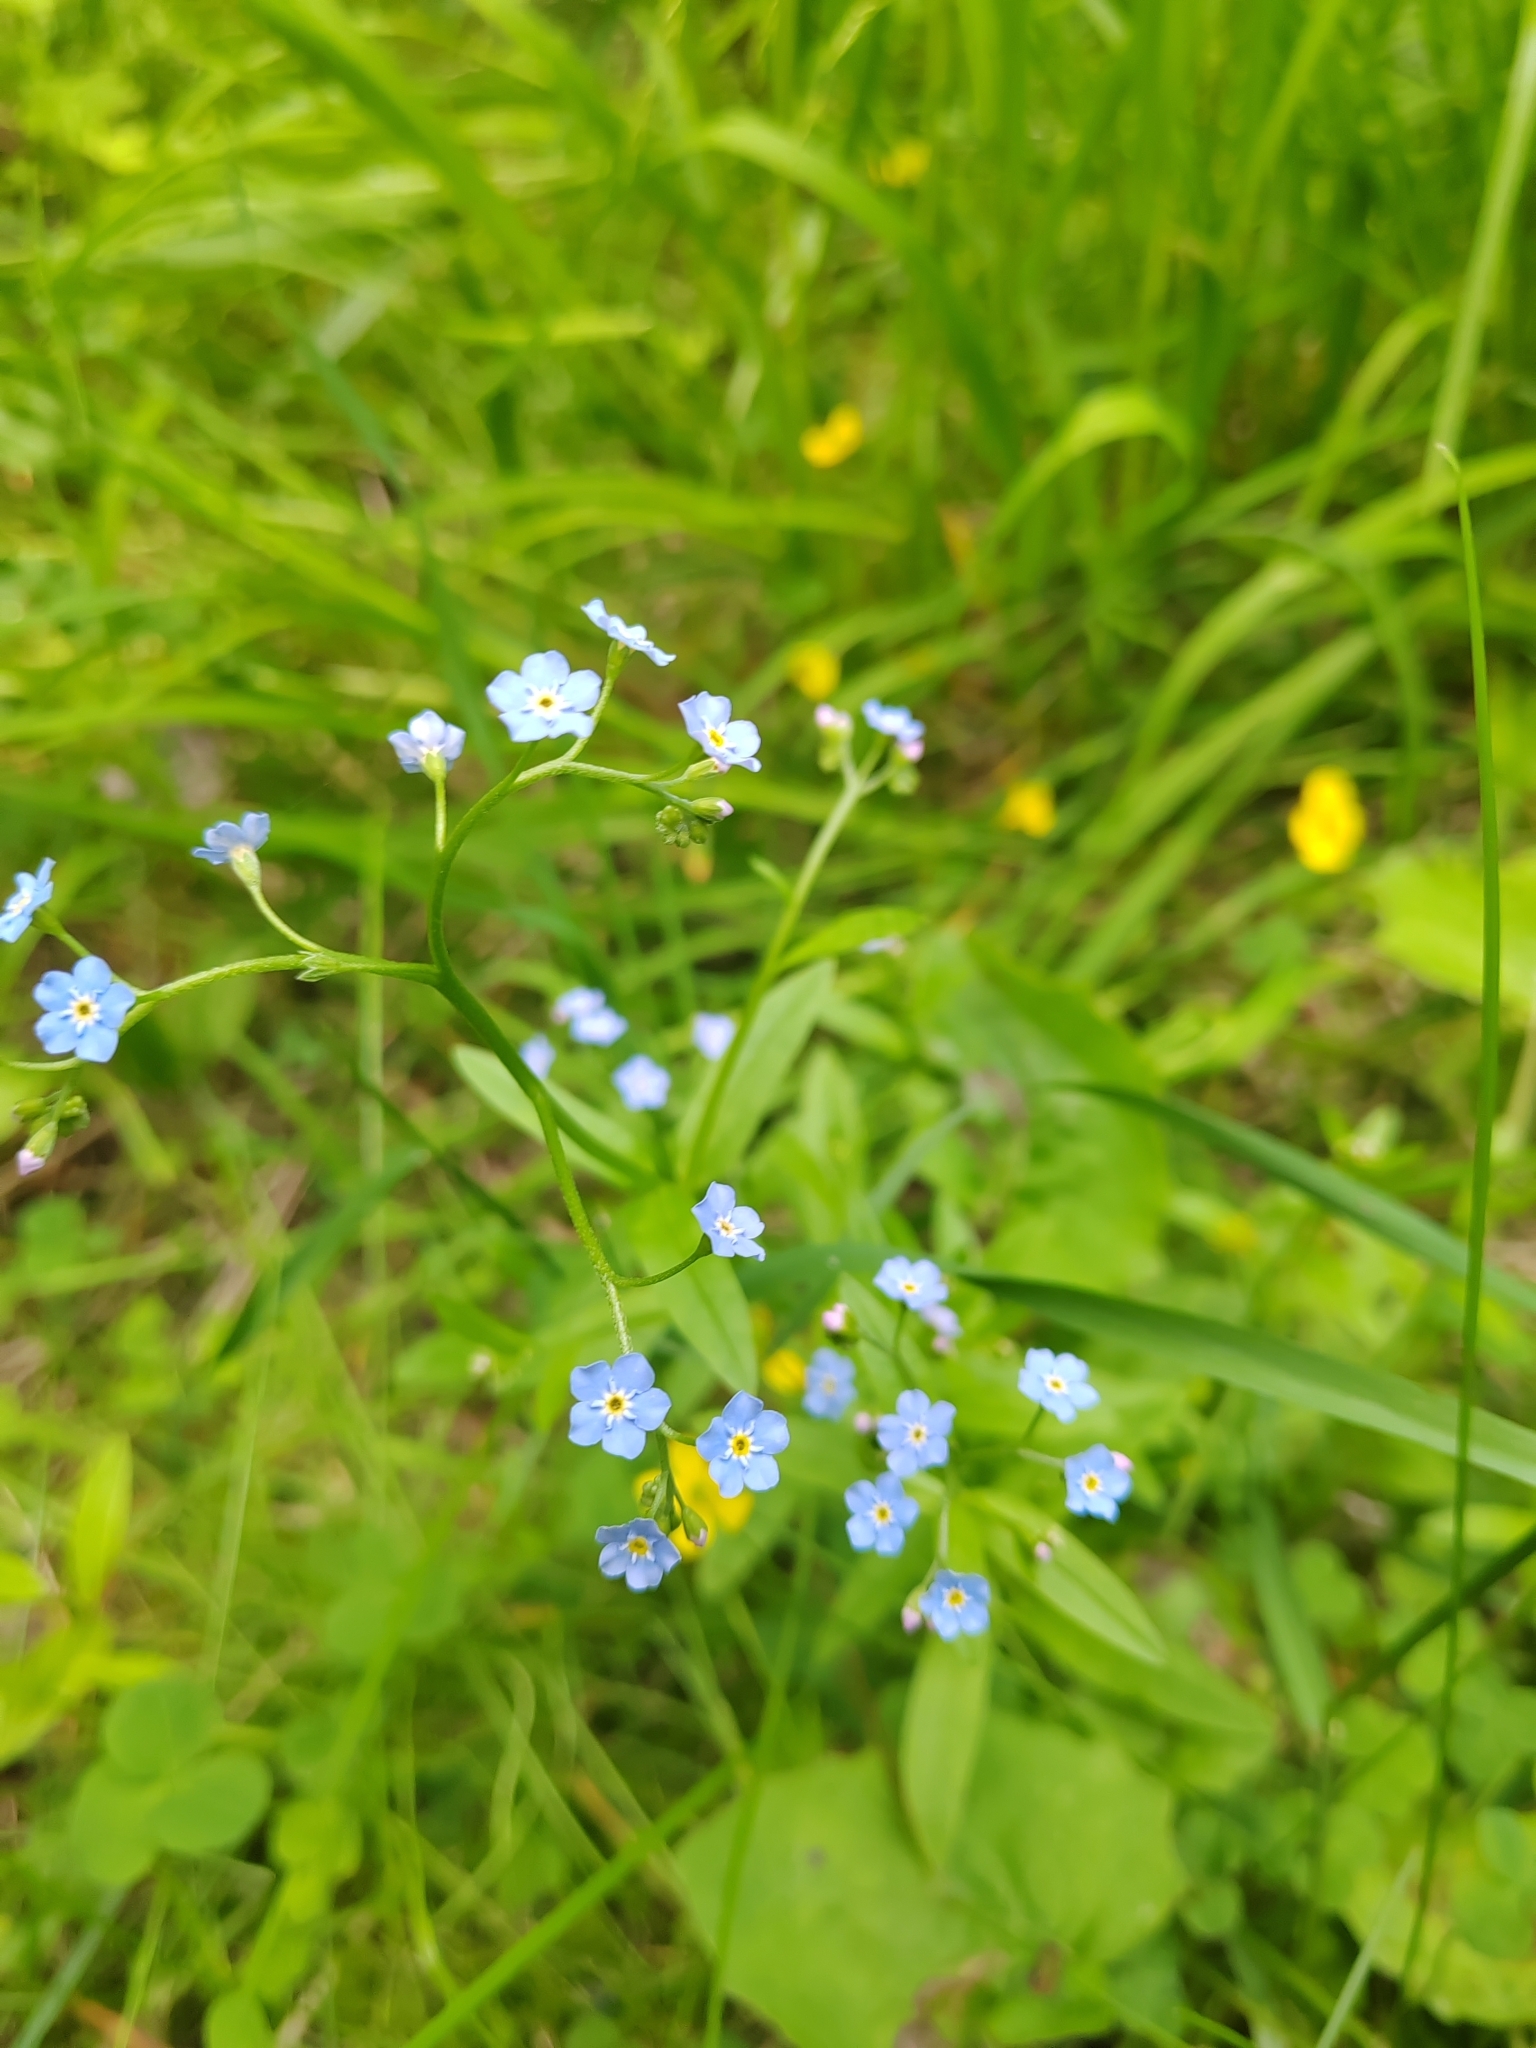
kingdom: Plantae
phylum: Tracheophyta
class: Magnoliopsida
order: Boraginales
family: Boraginaceae
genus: Myosotis
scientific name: Myosotis scorpioides
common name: Water forget-me-not
